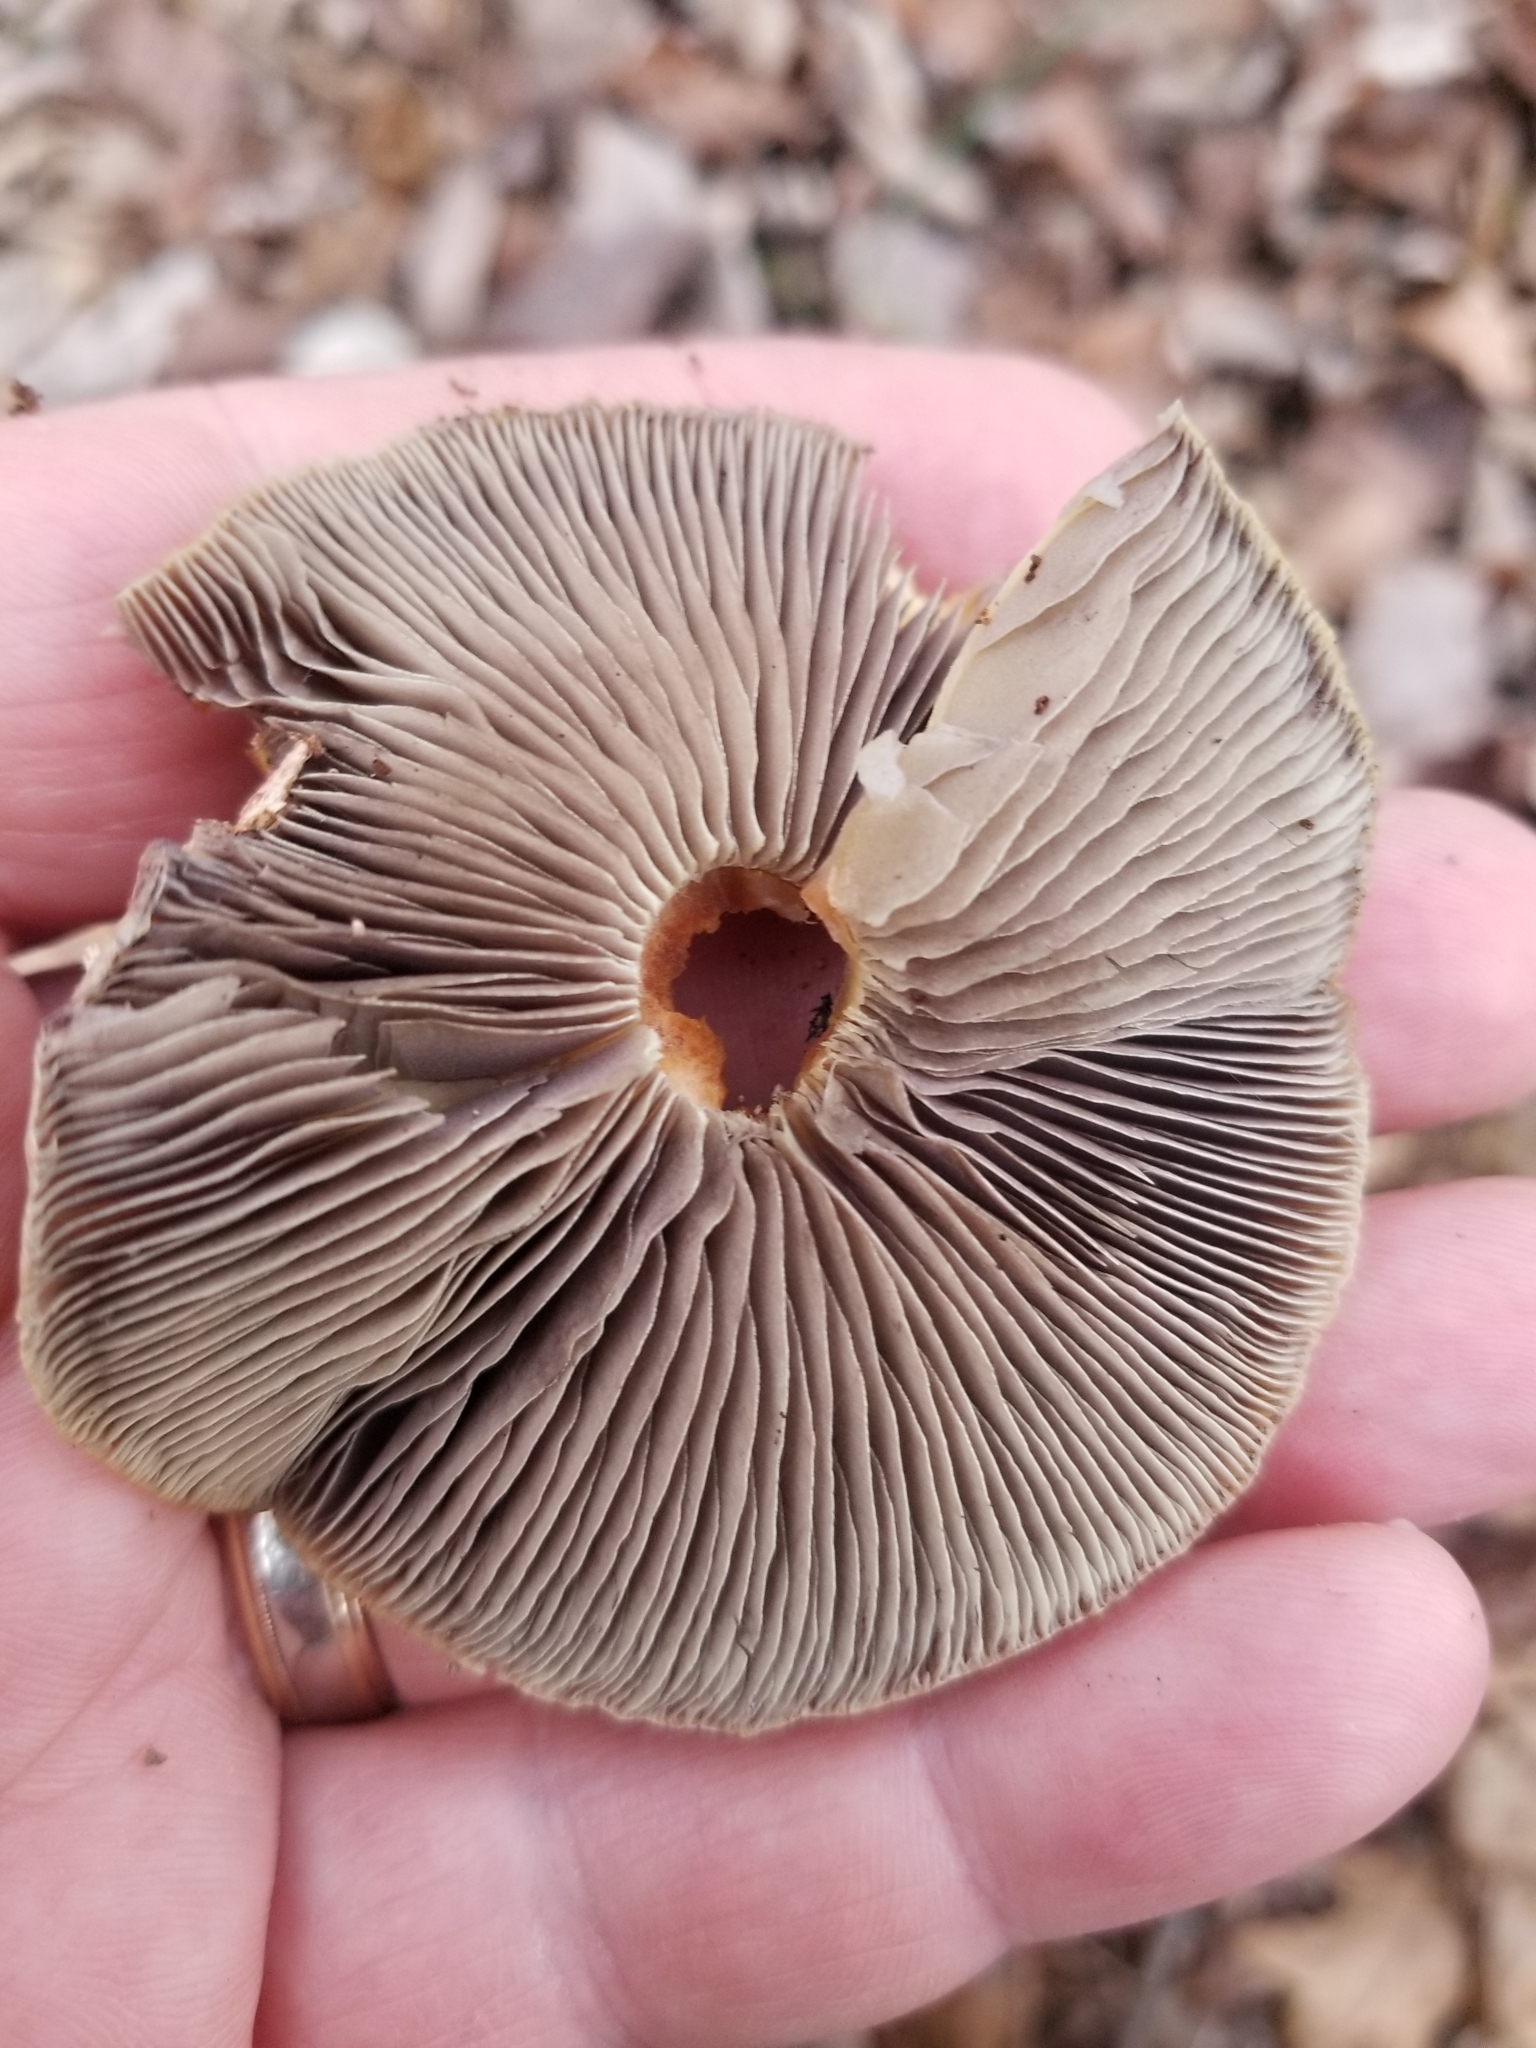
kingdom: Fungi
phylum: Basidiomycota
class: Agaricomycetes
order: Agaricales
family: Strophariaceae
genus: Hypholoma
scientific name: Hypholoma lateritium
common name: Brick caps
